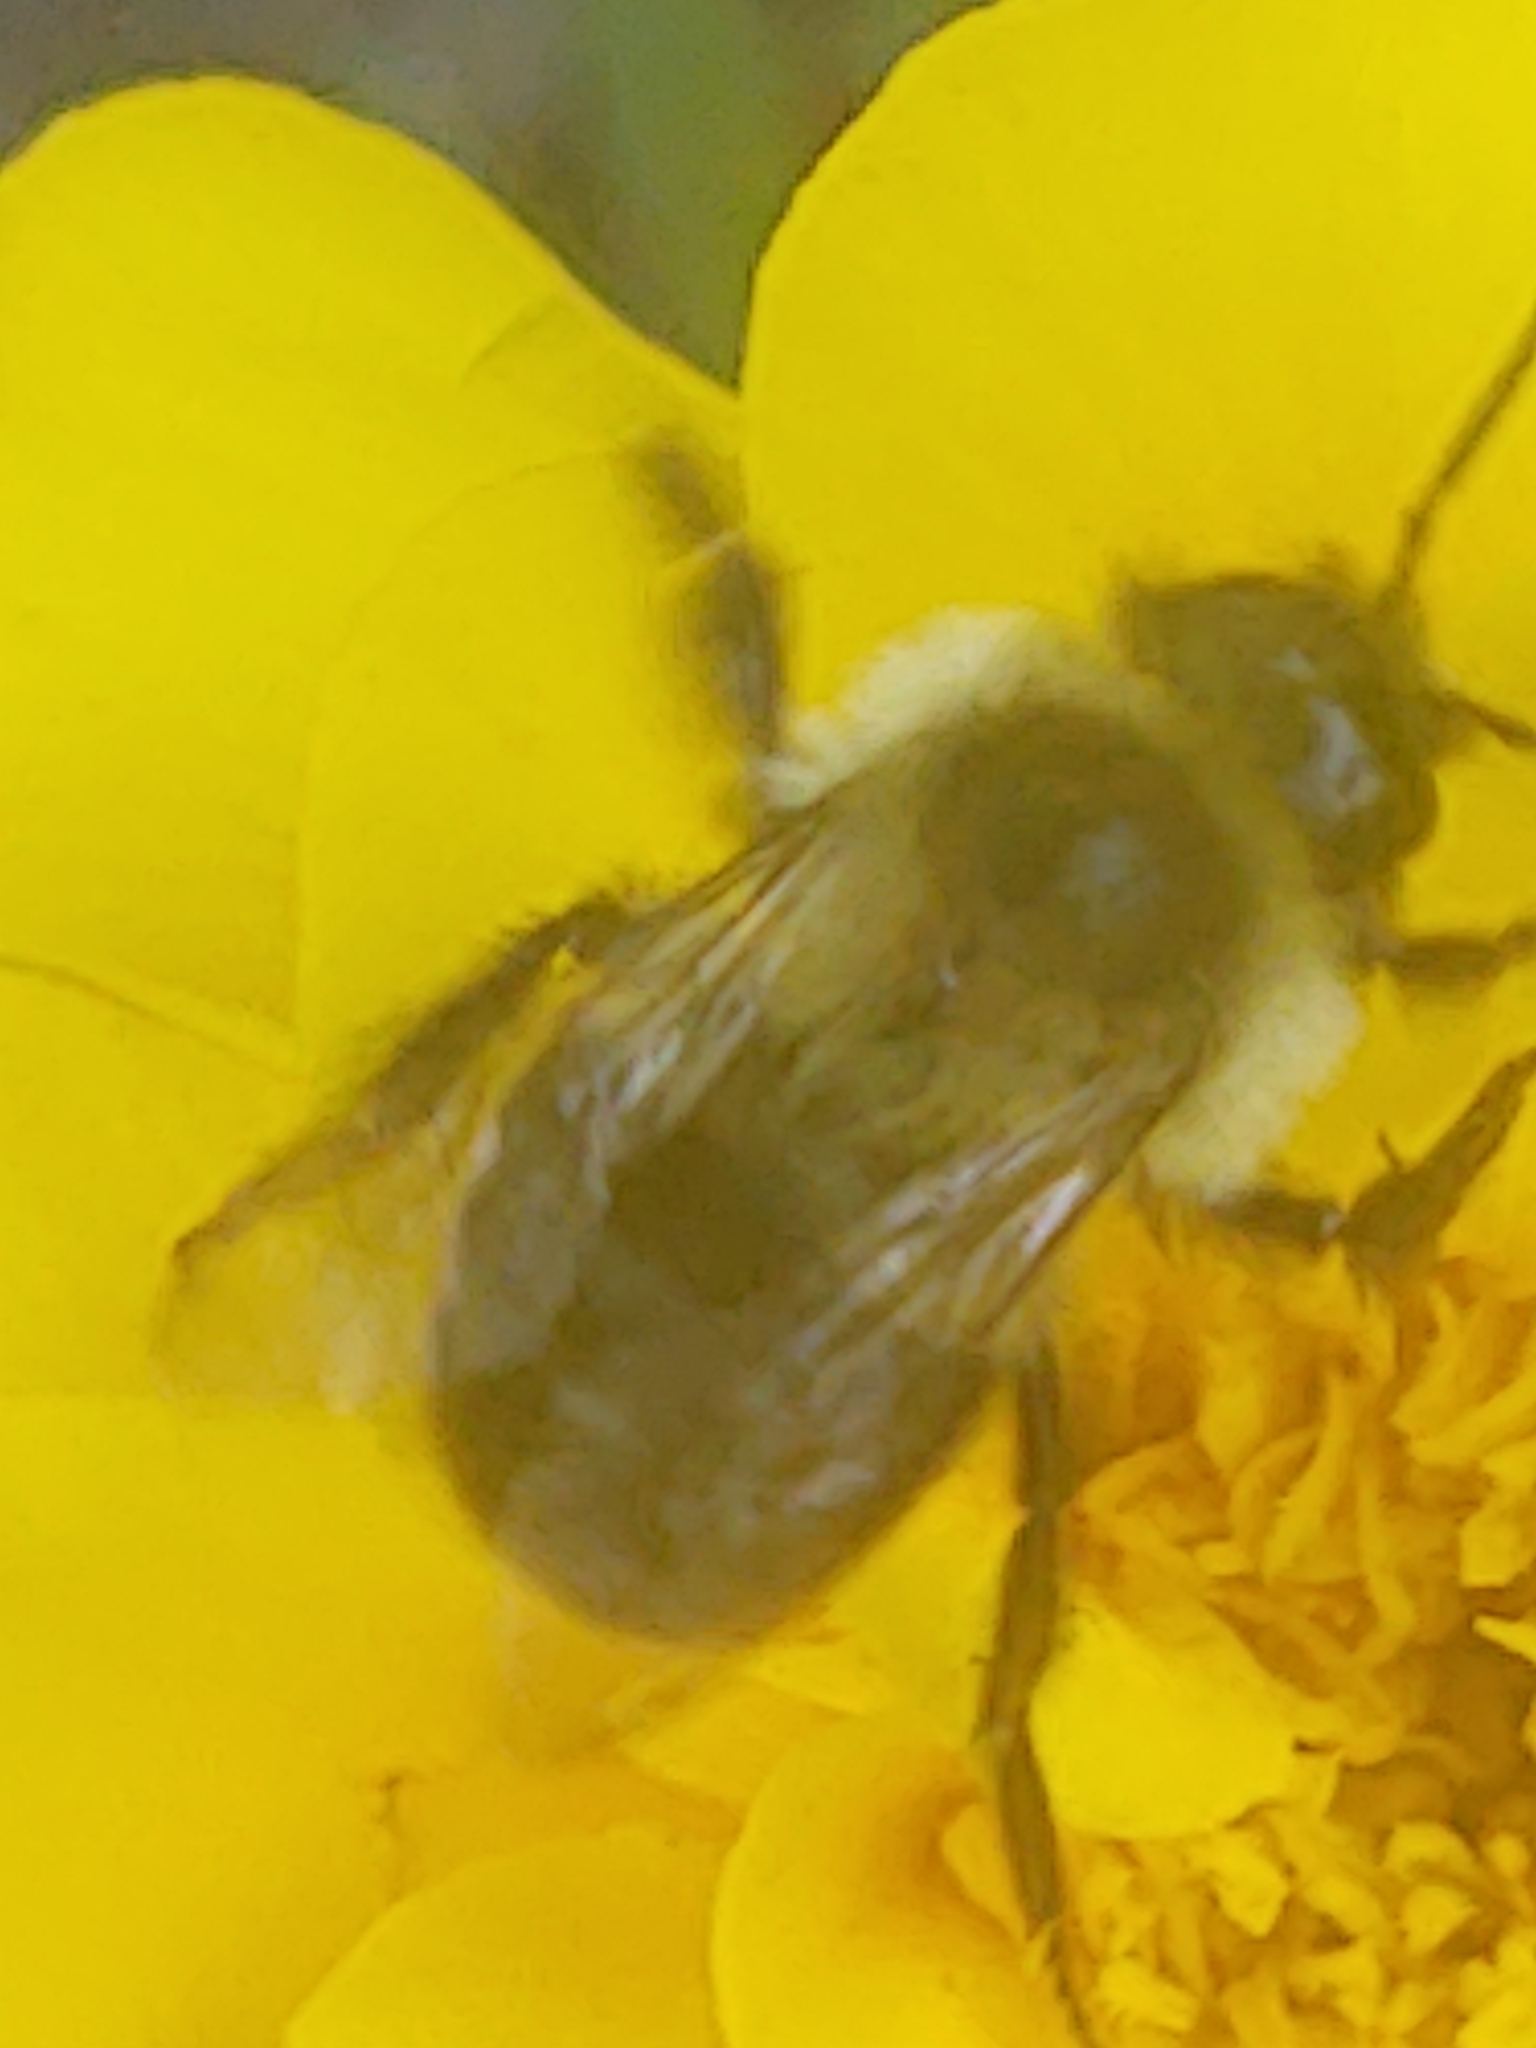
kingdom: Animalia
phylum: Arthropoda
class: Insecta
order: Hymenoptera
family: Apidae
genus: Bombus
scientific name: Bombus impatiens
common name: Common eastern bumble bee
